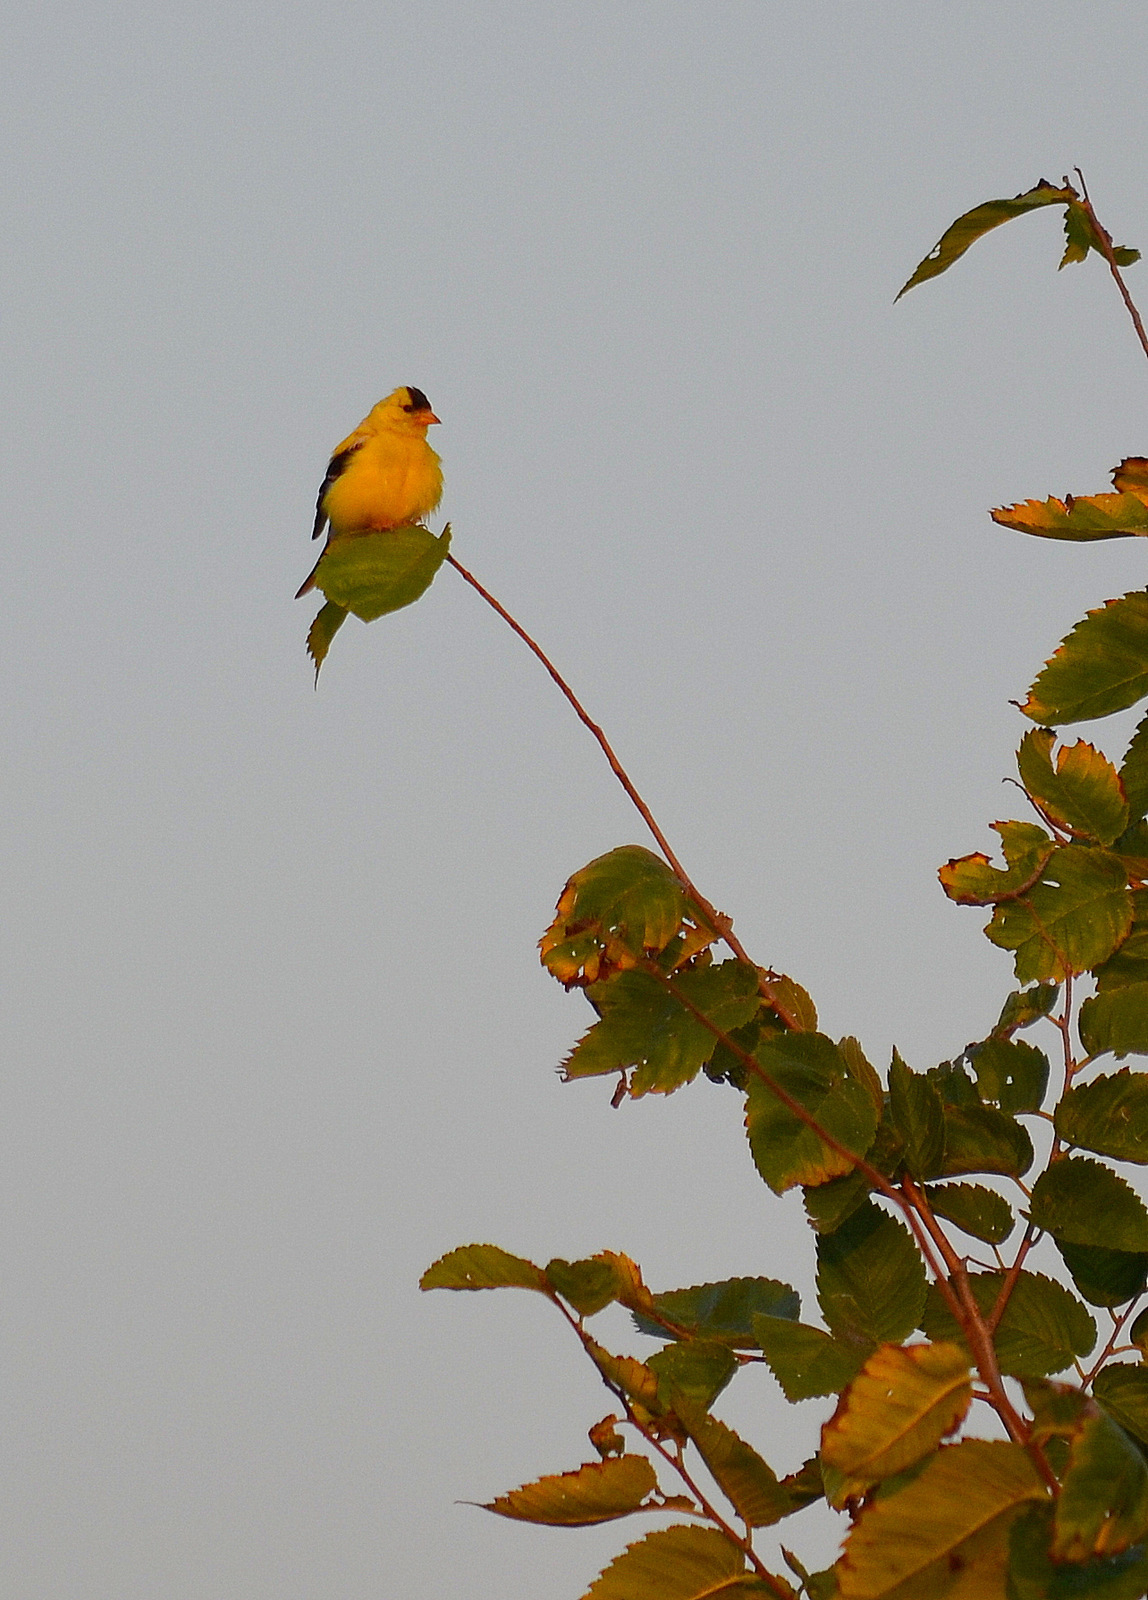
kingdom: Animalia
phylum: Chordata
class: Aves
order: Passeriformes
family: Fringillidae
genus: Spinus
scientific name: Spinus tristis
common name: American goldfinch
